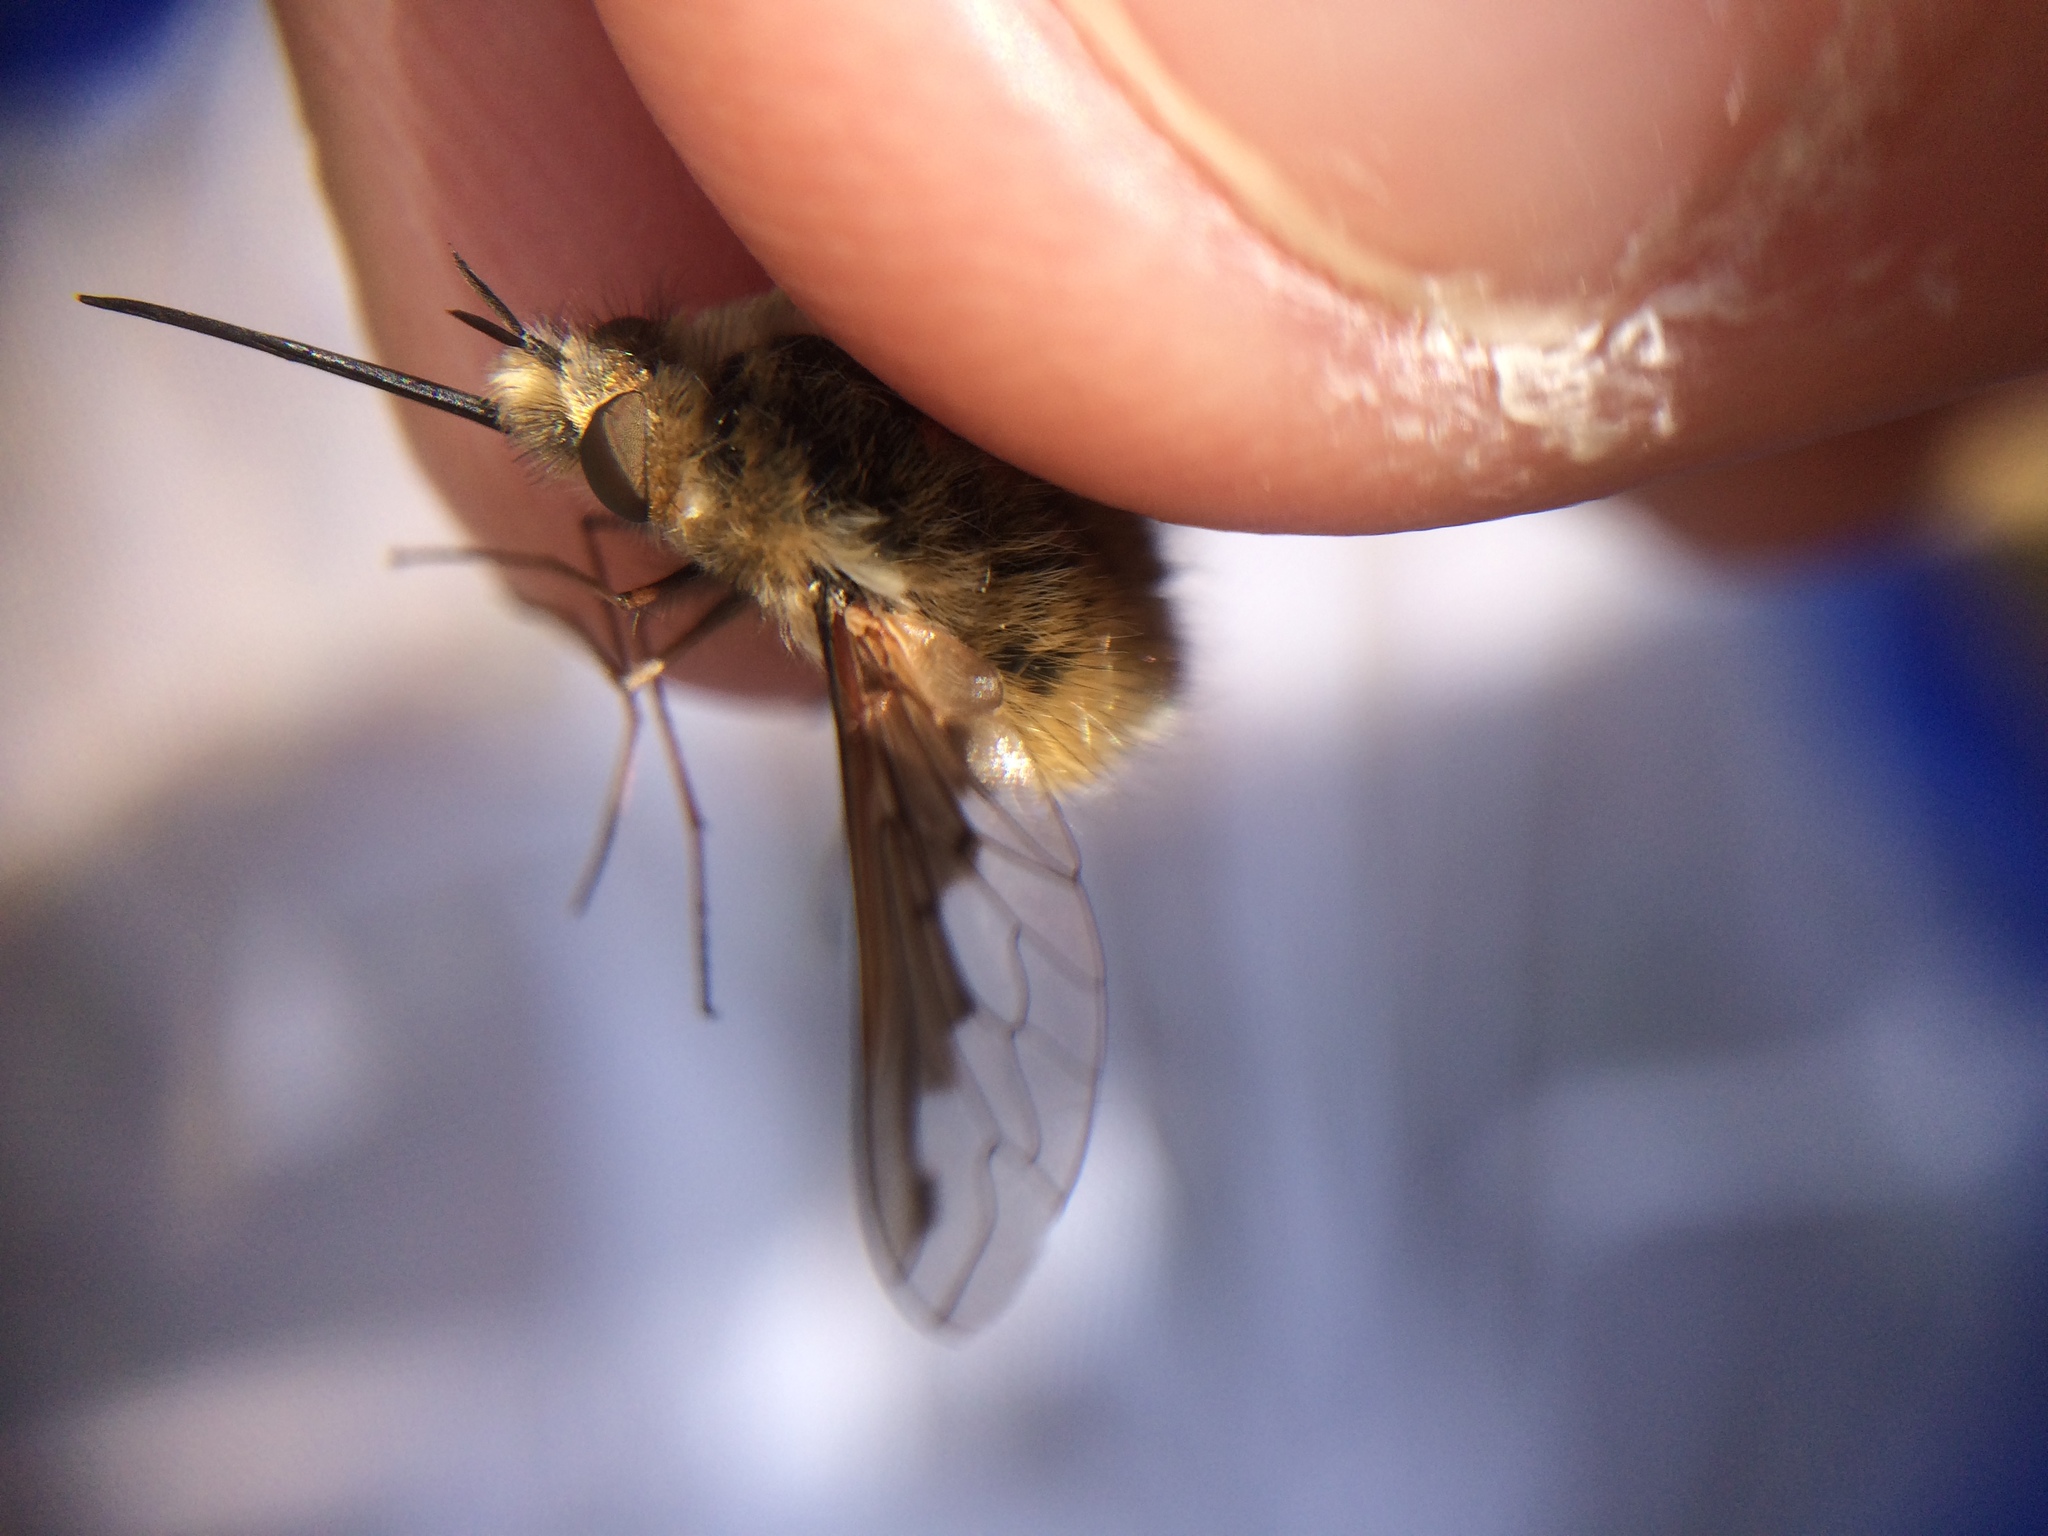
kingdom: Animalia
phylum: Arthropoda
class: Insecta
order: Diptera
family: Bombyliidae
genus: Bombylius
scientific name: Bombylius major
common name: Bee fly
